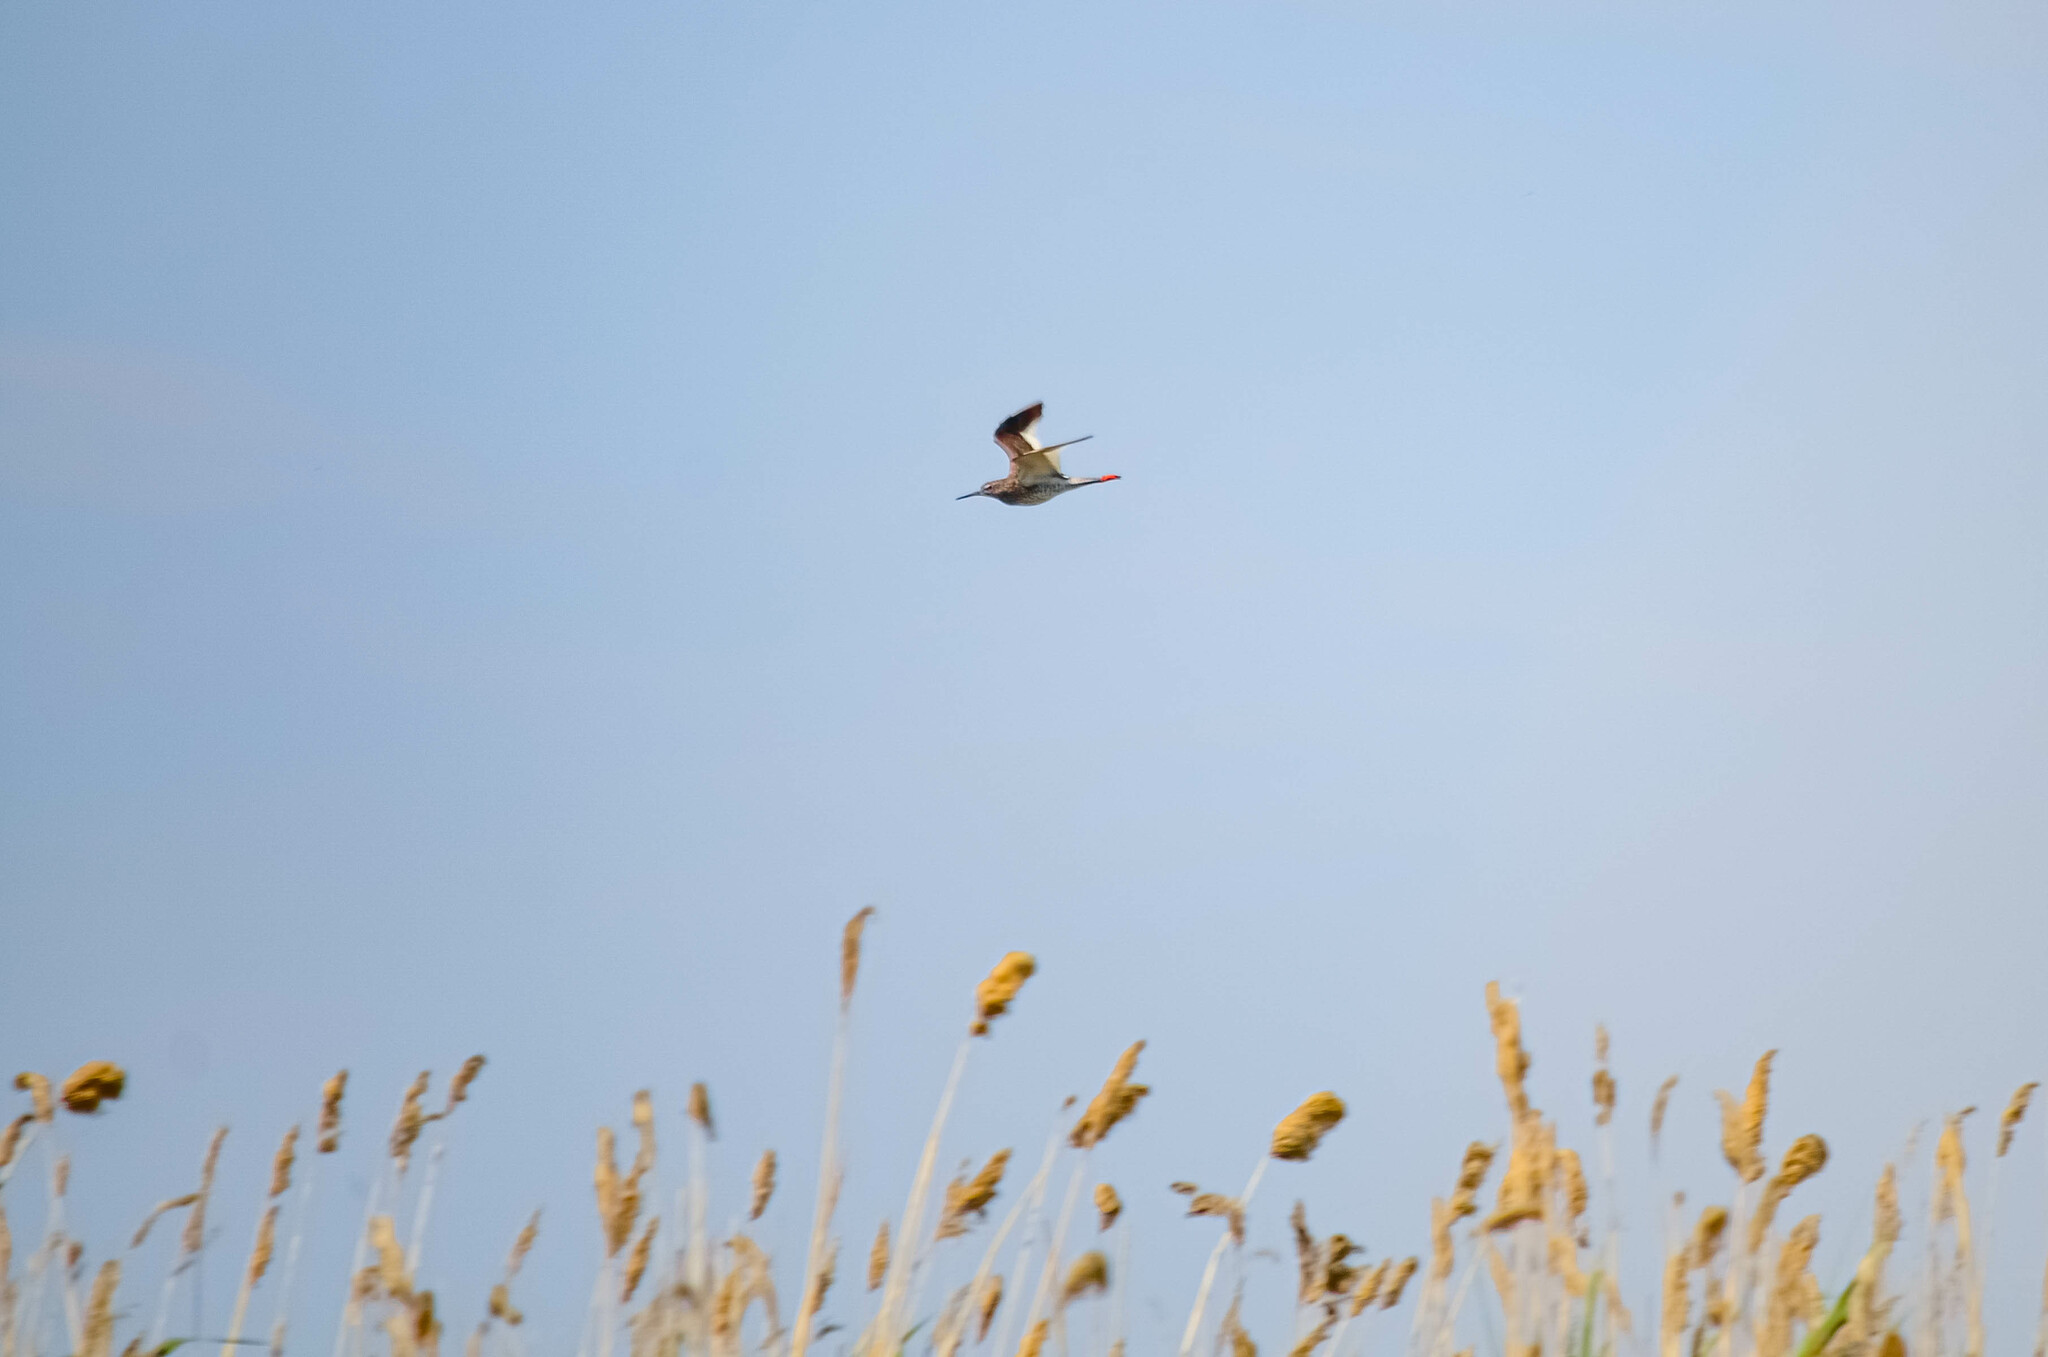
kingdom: Animalia
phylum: Chordata
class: Aves
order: Charadriiformes
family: Scolopacidae
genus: Tringa
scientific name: Tringa totanus
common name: Common redshank
